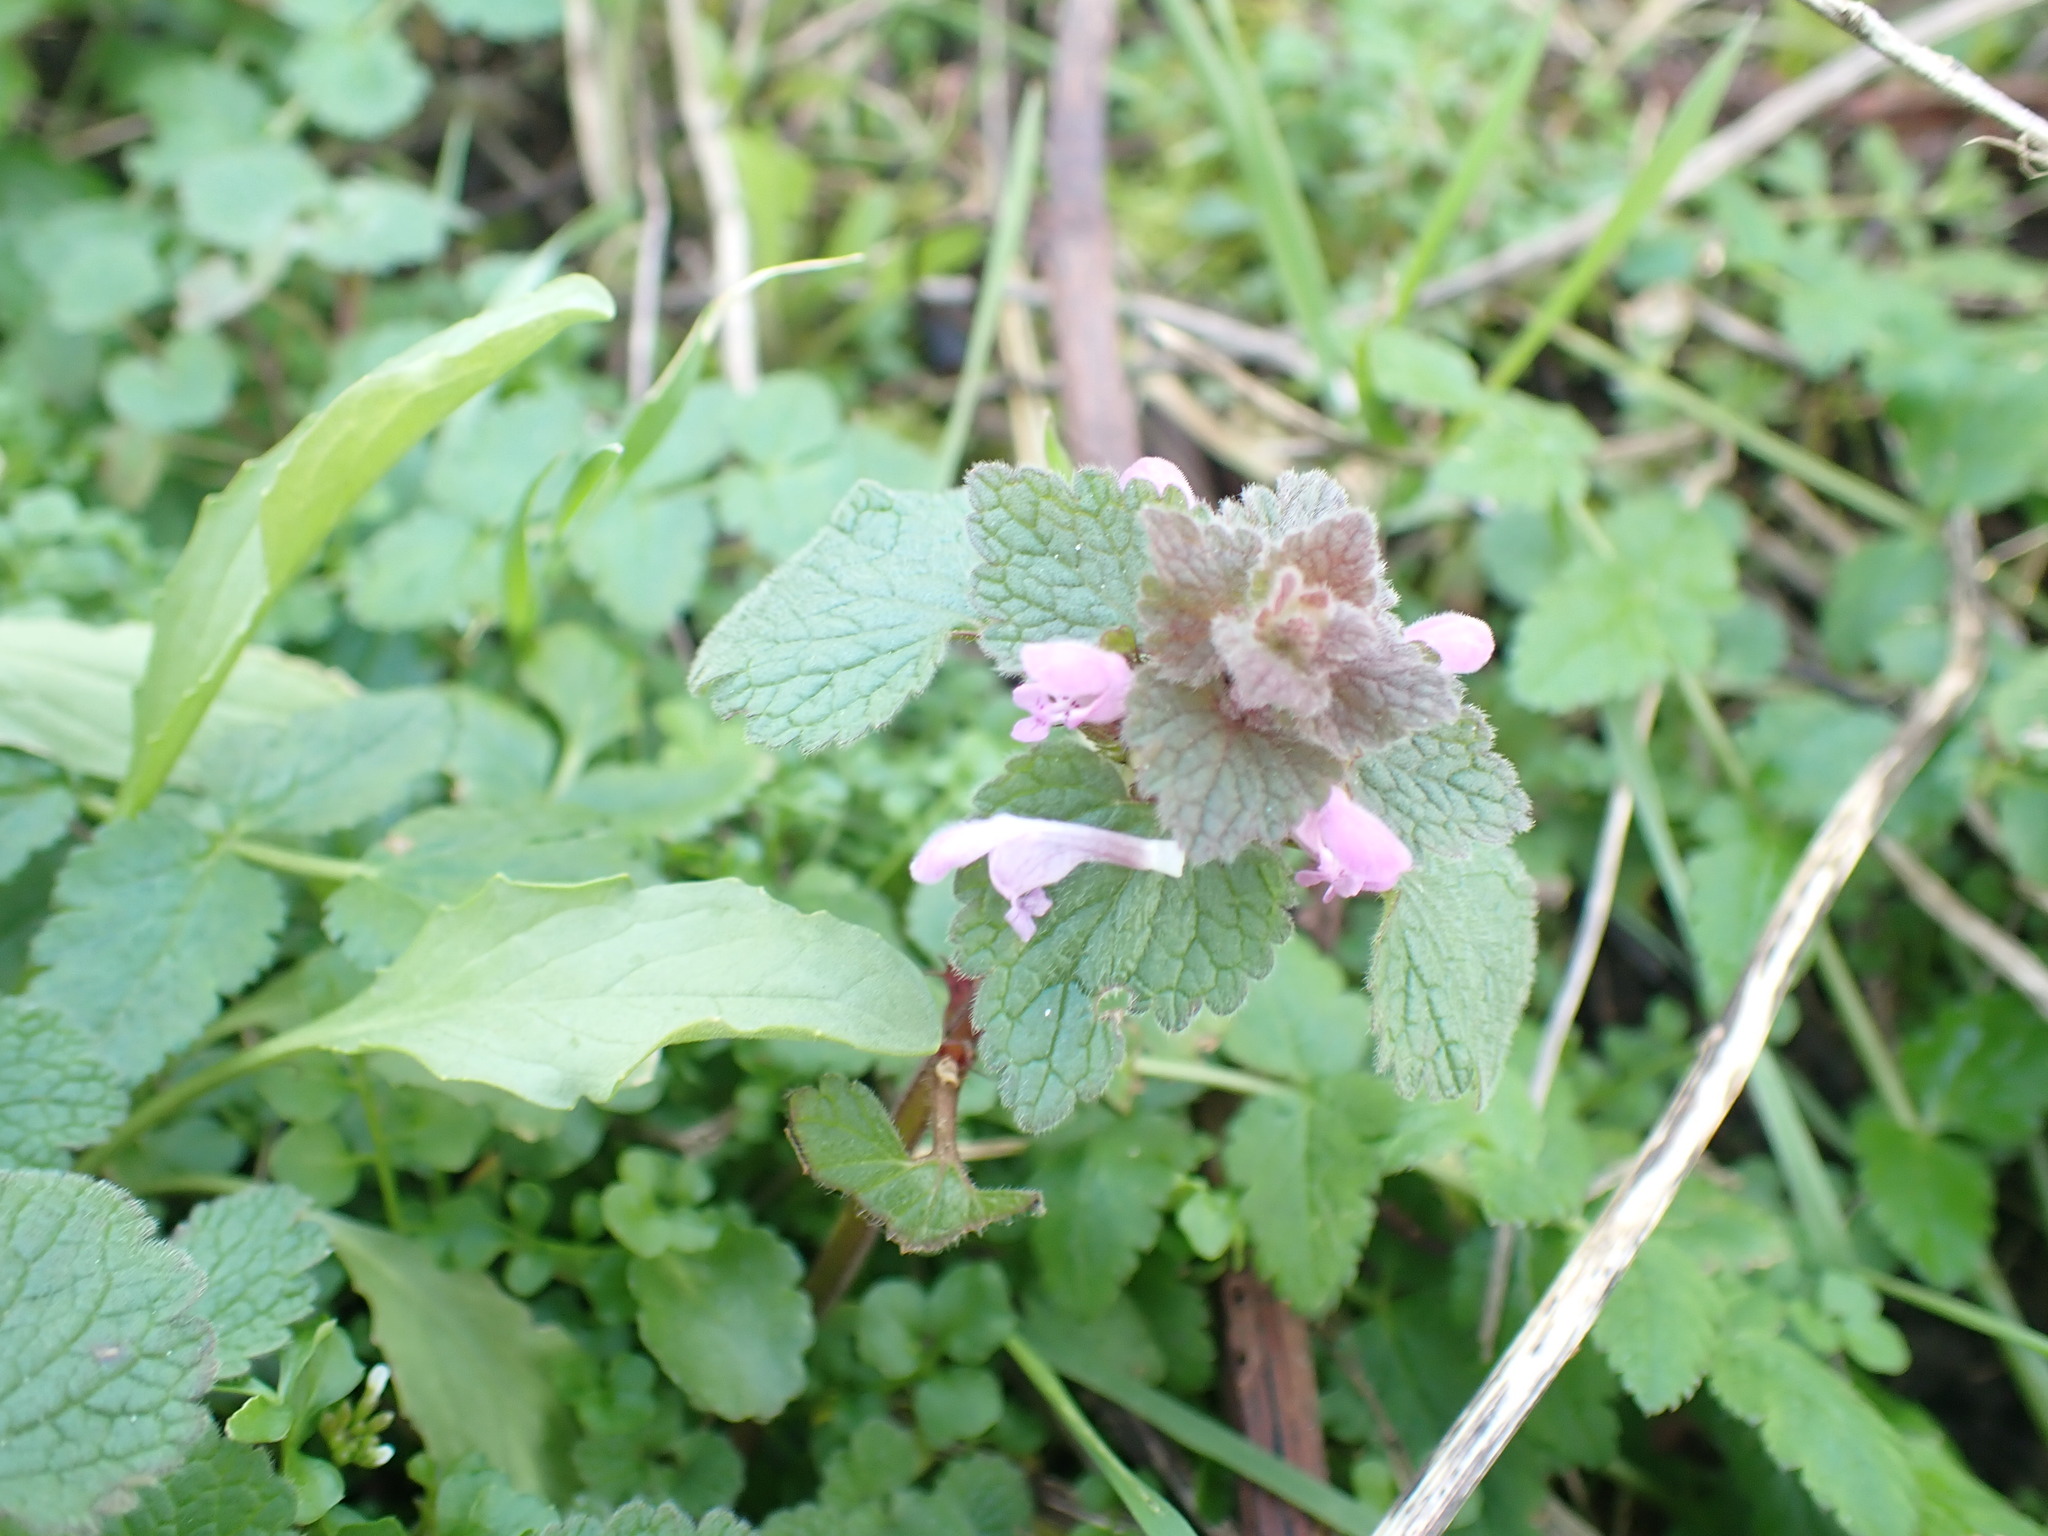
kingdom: Plantae
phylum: Tracheophyta
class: Magnoliopsida
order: Lamiales
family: Lamiaceae
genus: Lamium
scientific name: Lamium purpureum
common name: Red dead-nettle
